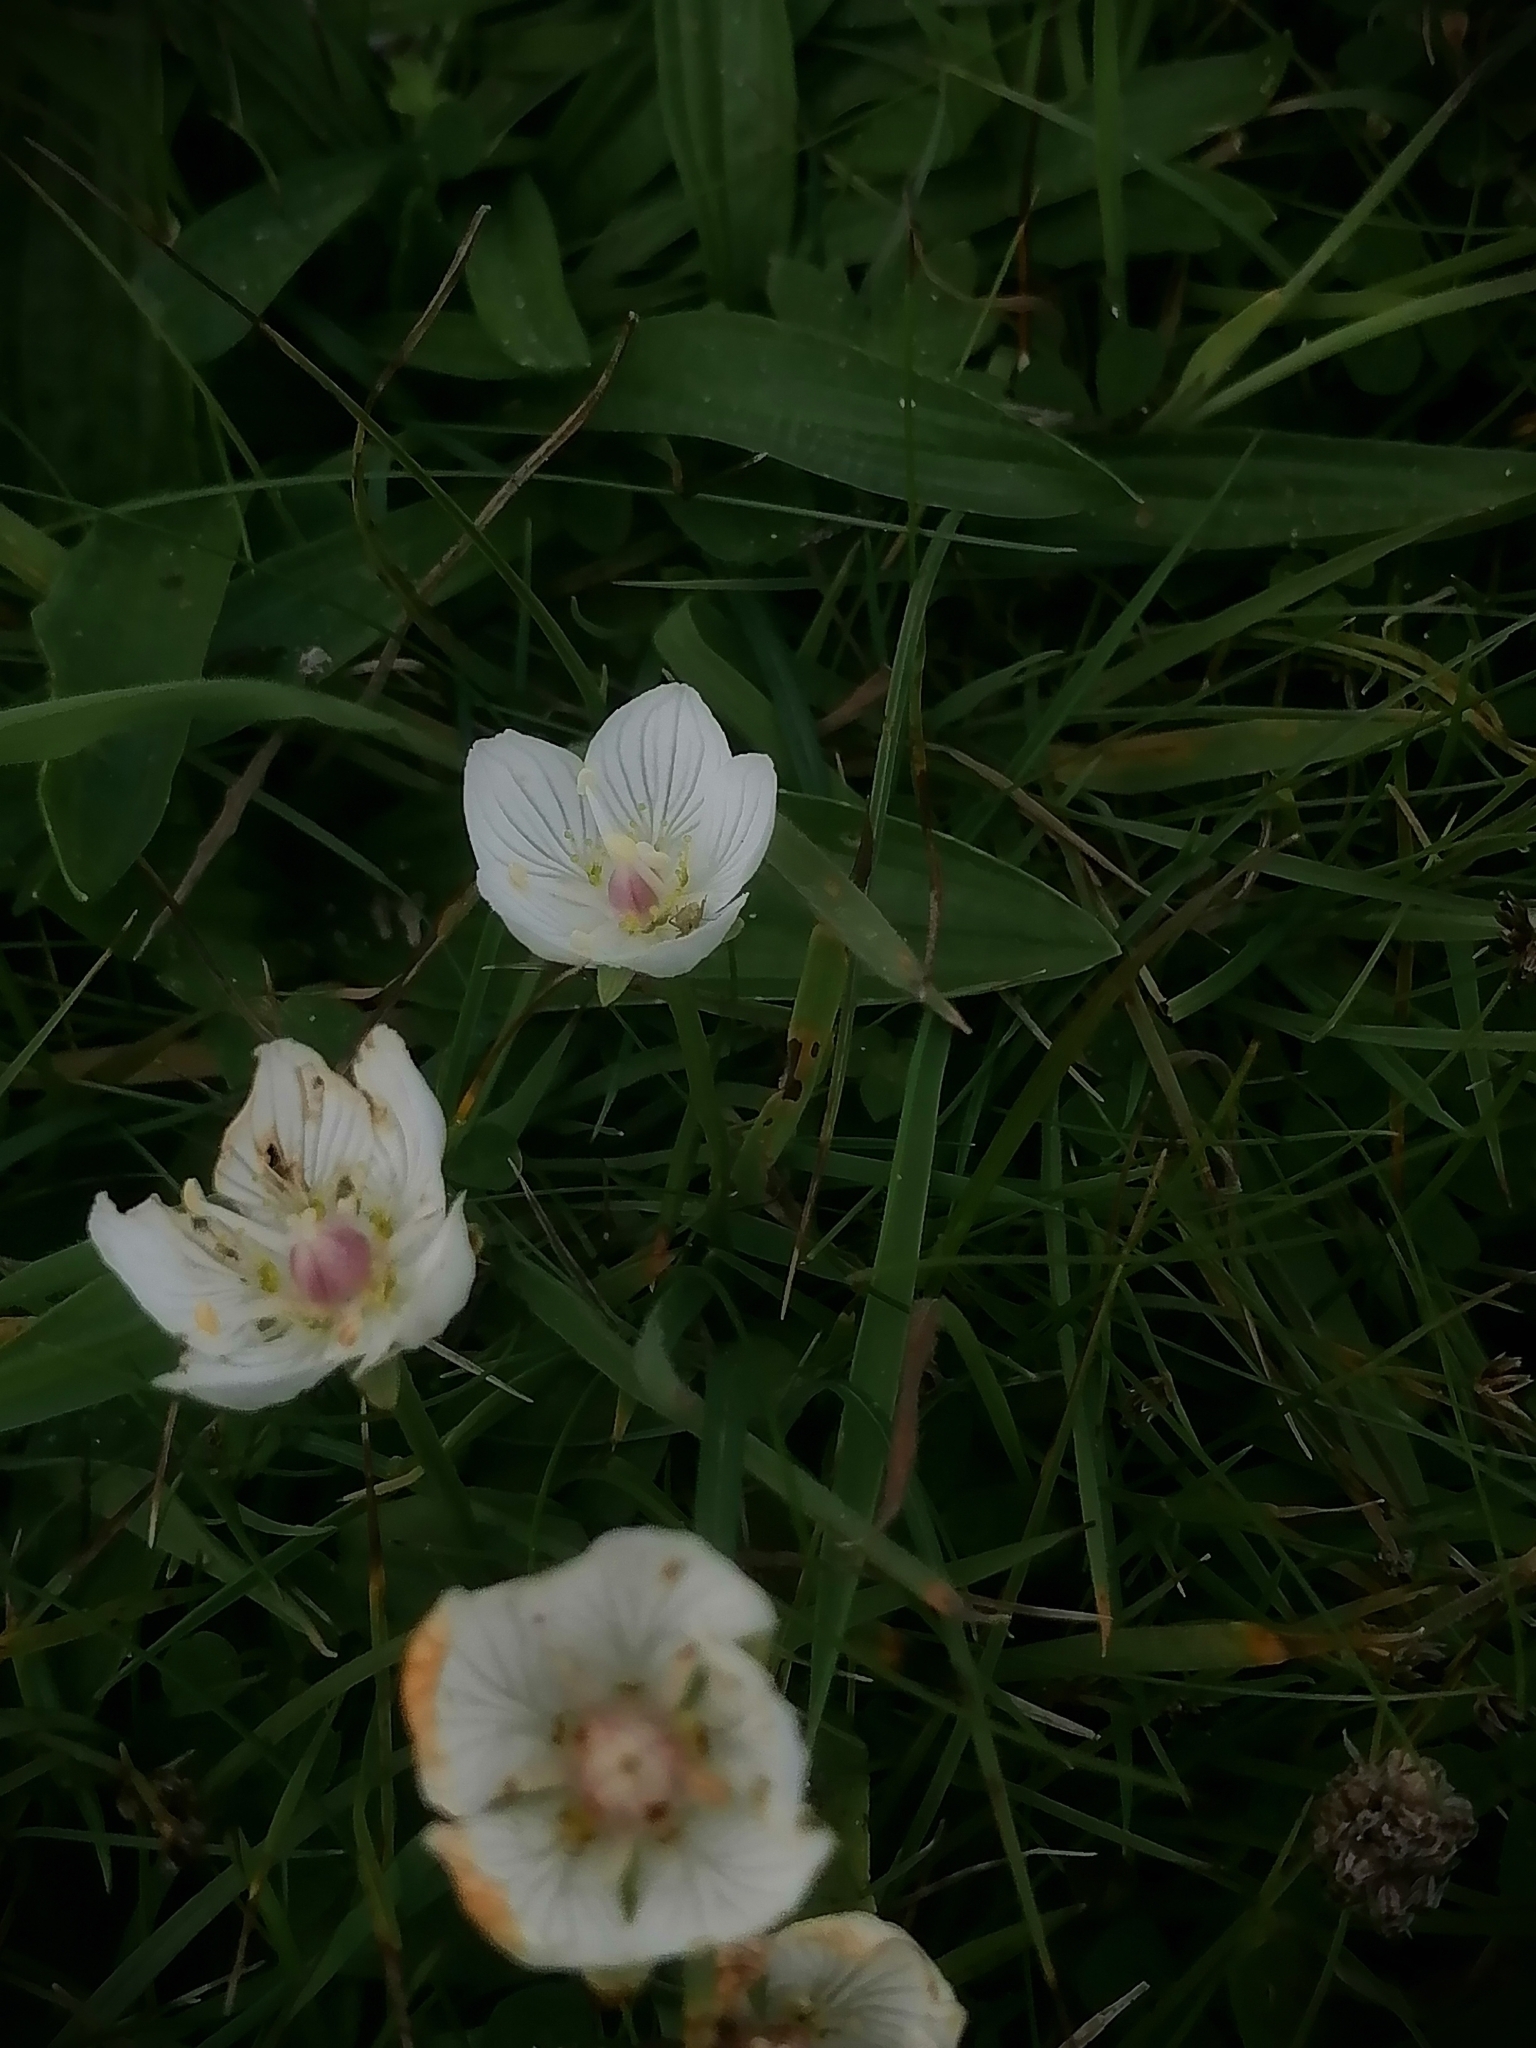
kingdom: Plantae
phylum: Tracheophyta
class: Magnoliopsida
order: Celastrales
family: Parnassiaceae
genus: Parnassia
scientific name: Parnassia palustris
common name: Grass-of-parnassus
